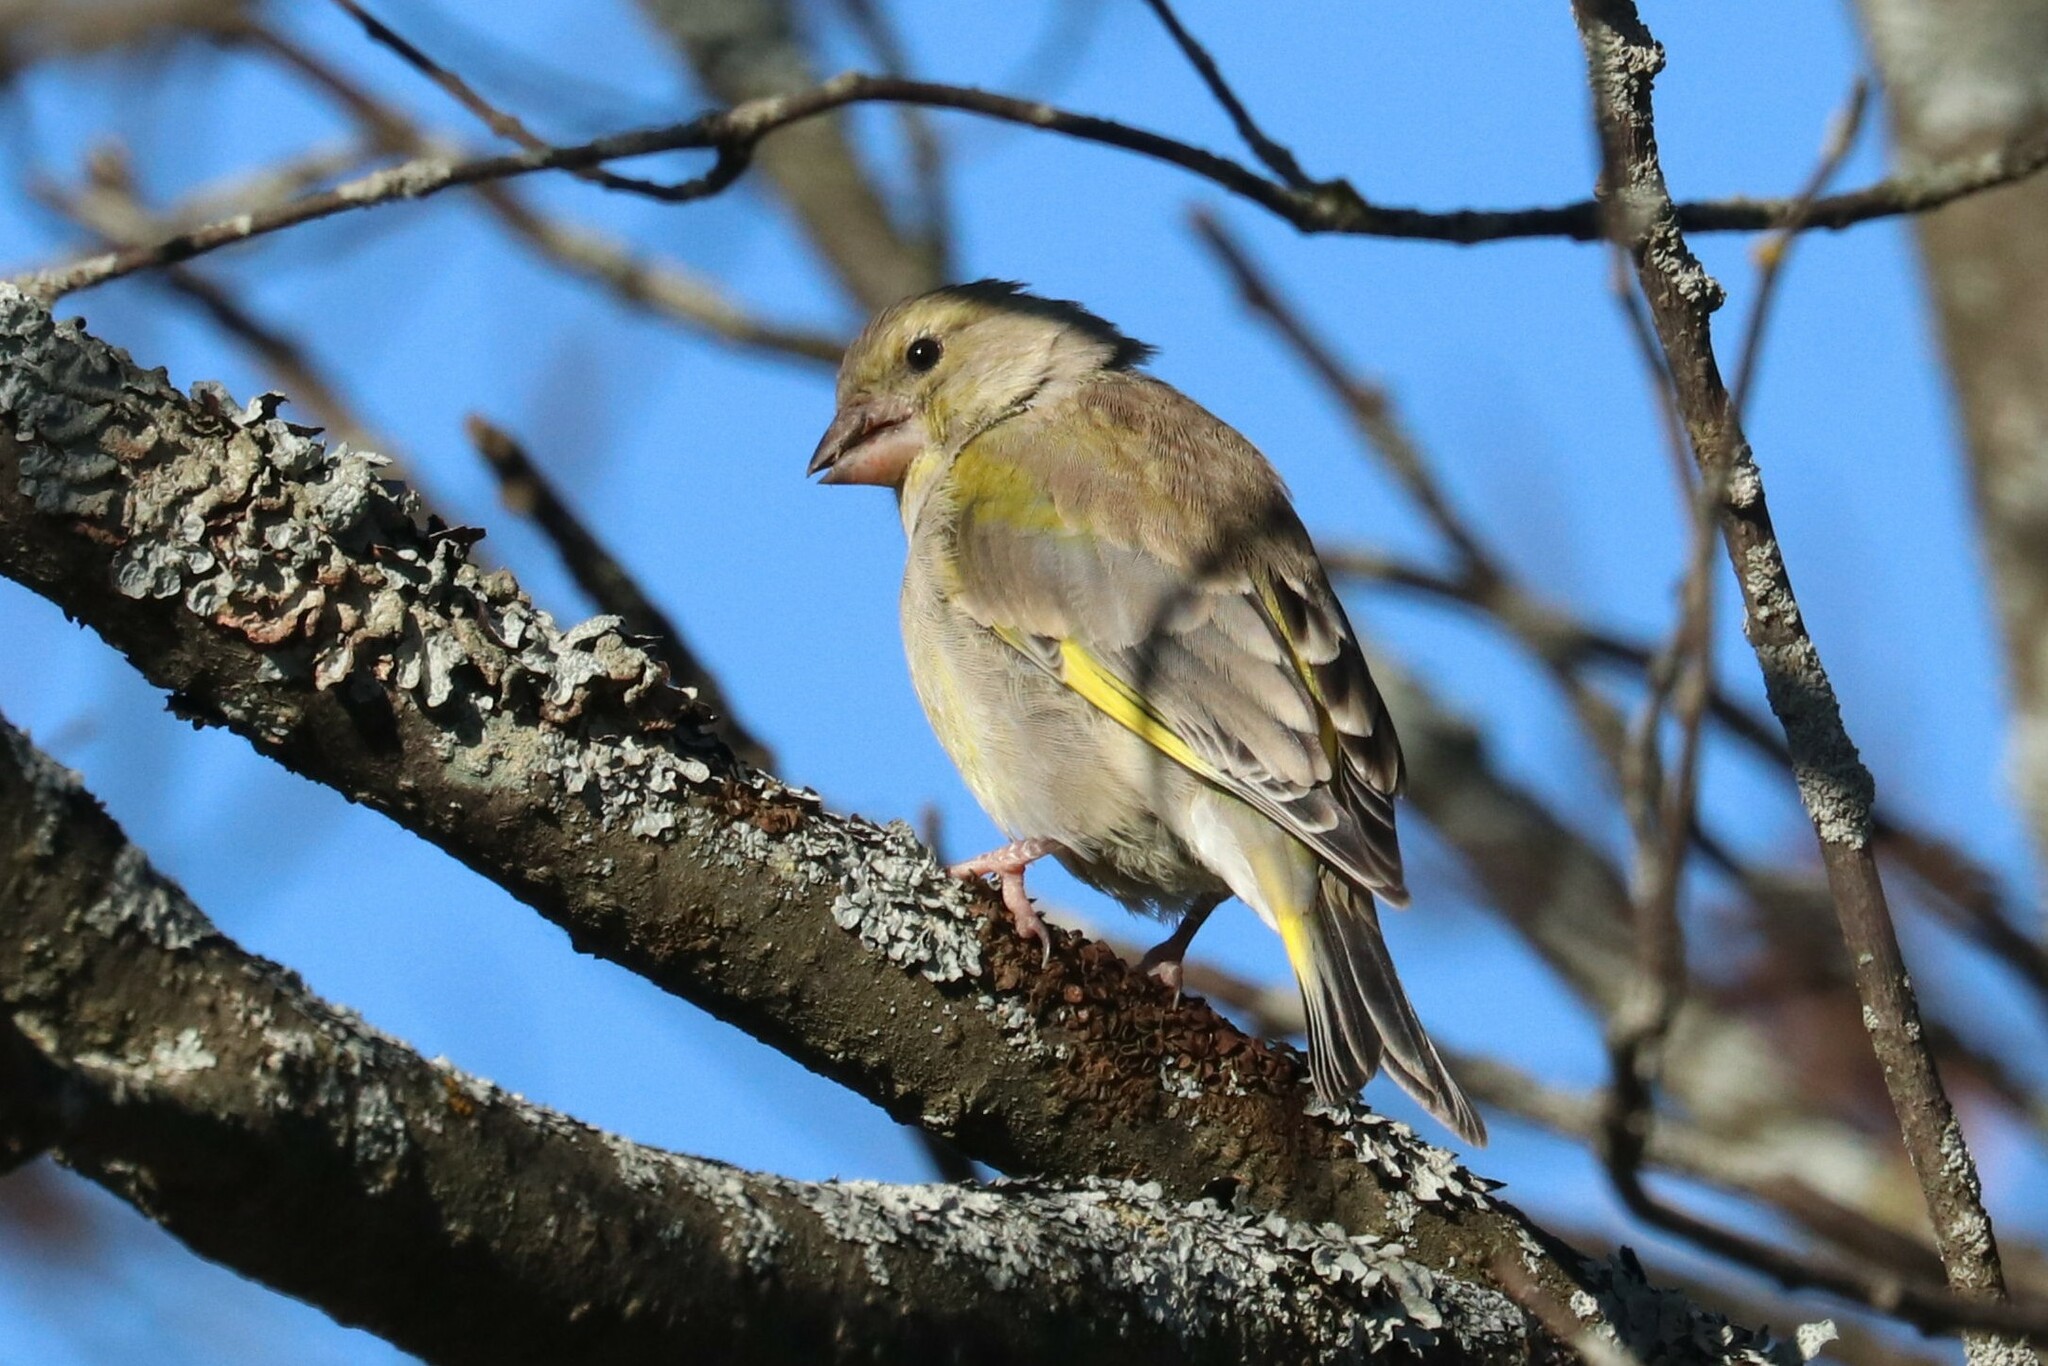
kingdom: Plantae
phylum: Tracheophyta
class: Liliopsida
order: Poales
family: Poaceae
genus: Chloris
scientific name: Chloris chloris
